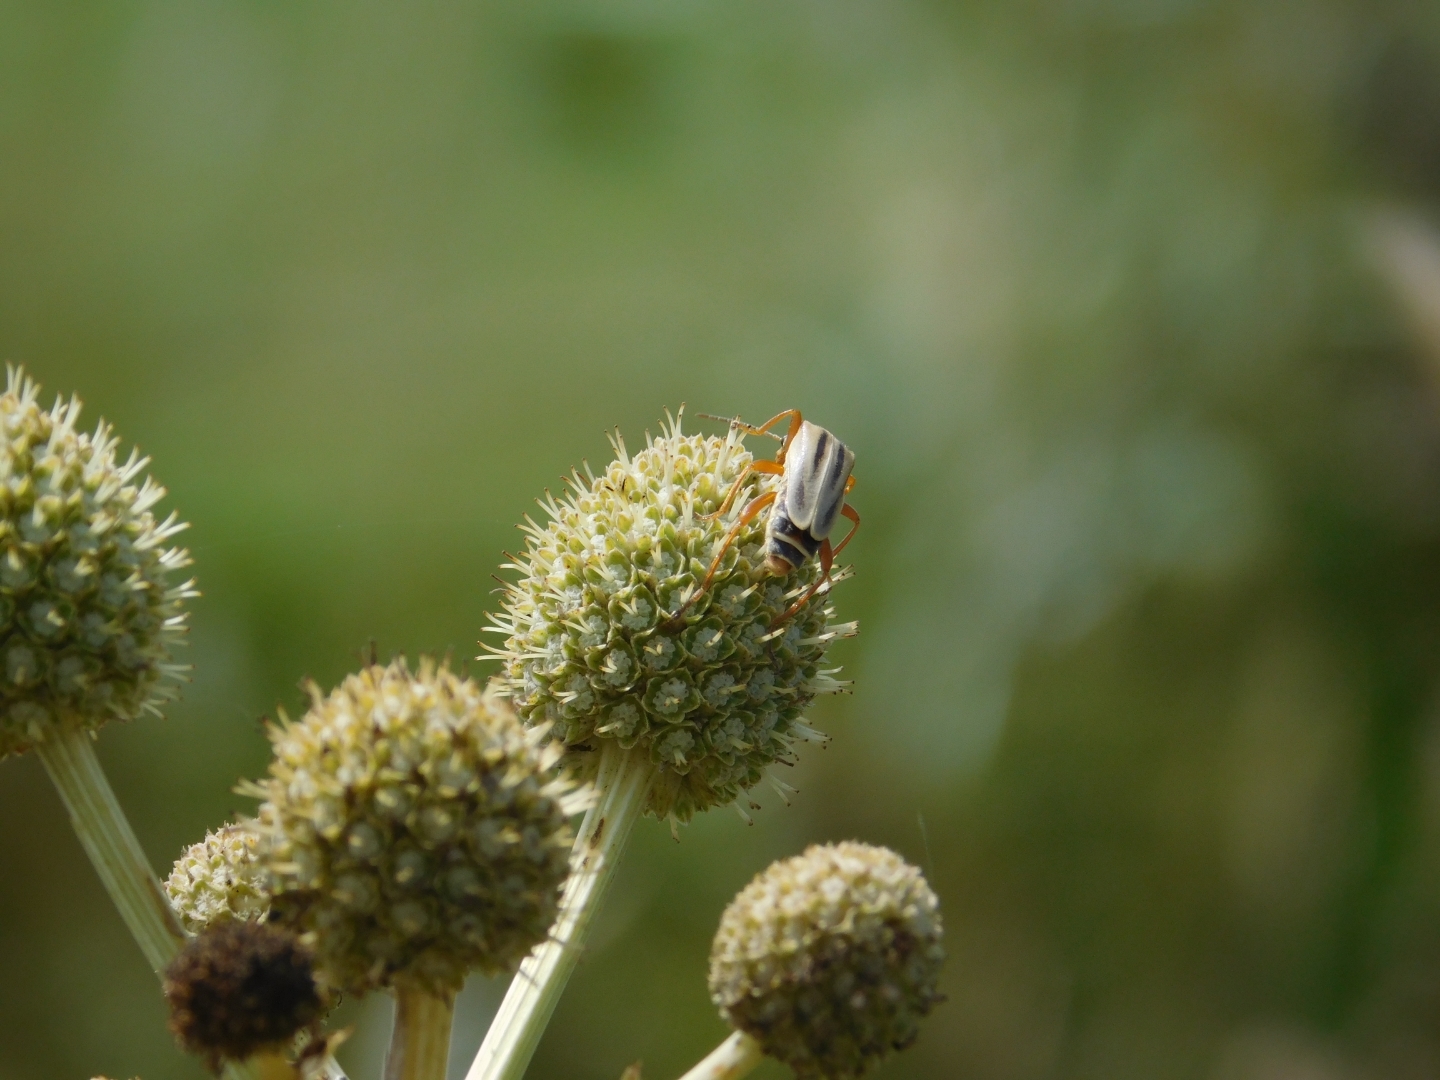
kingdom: Animalia
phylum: Arthropoda
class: Insecta
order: Coleoptera
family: Cantharidae
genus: Chauliognathus
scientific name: Chauliognathus
